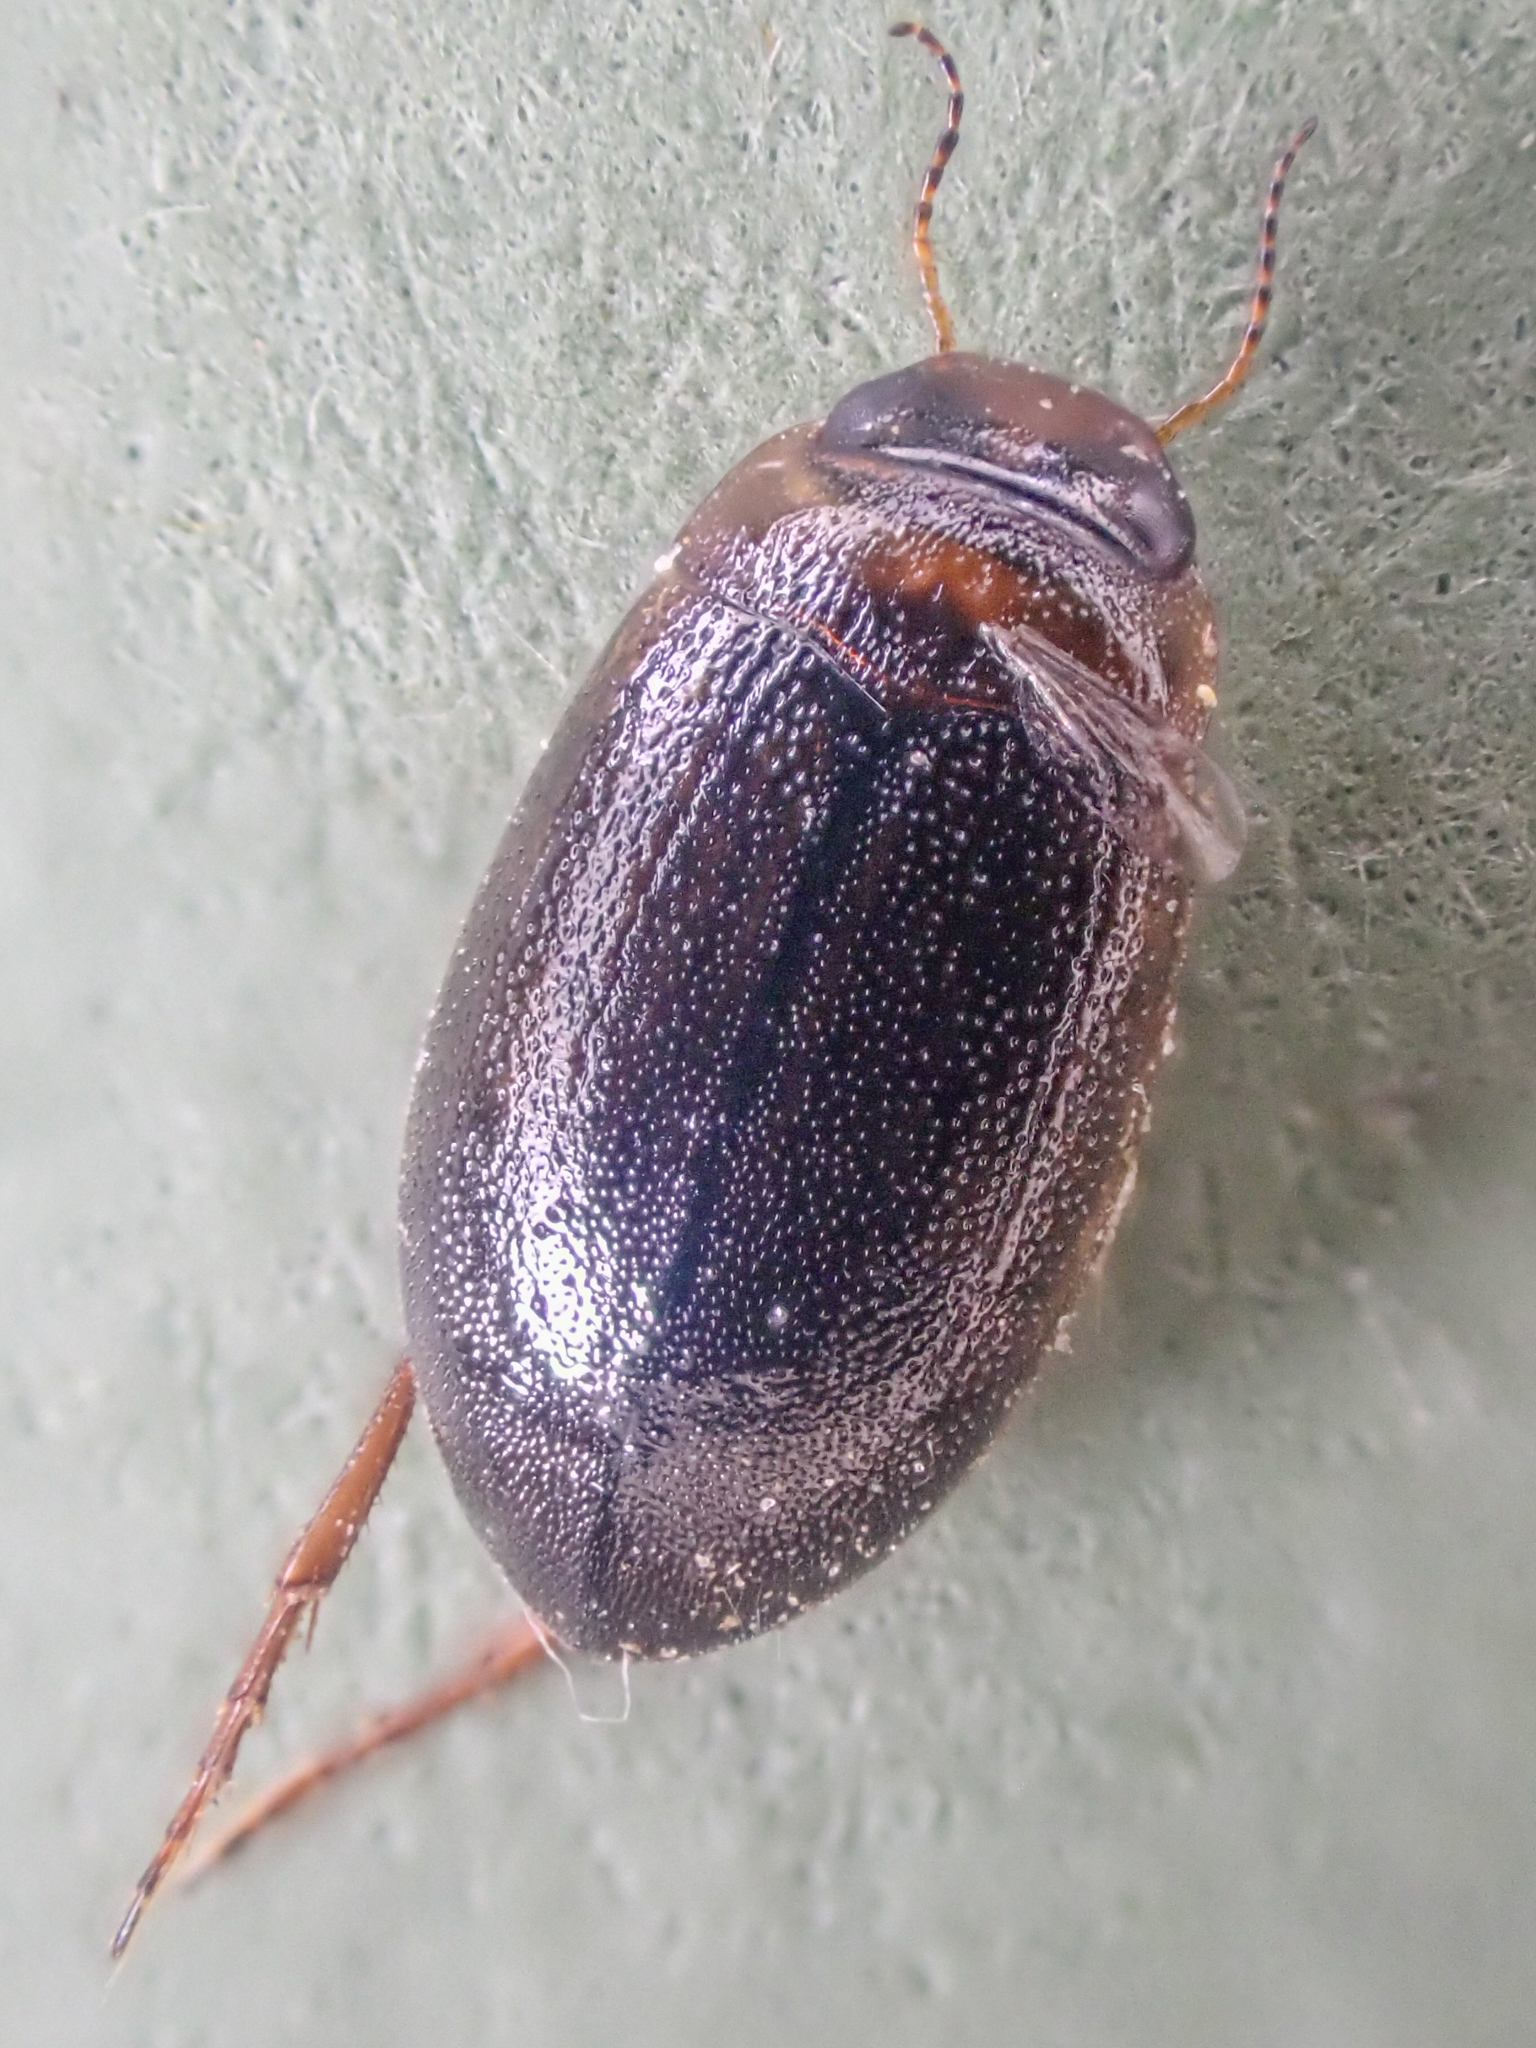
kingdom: Animalia
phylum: Arthropoda
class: Insecta
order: Coleoptera
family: Dytiscidae
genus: Hygrotus
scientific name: Hygrotus
